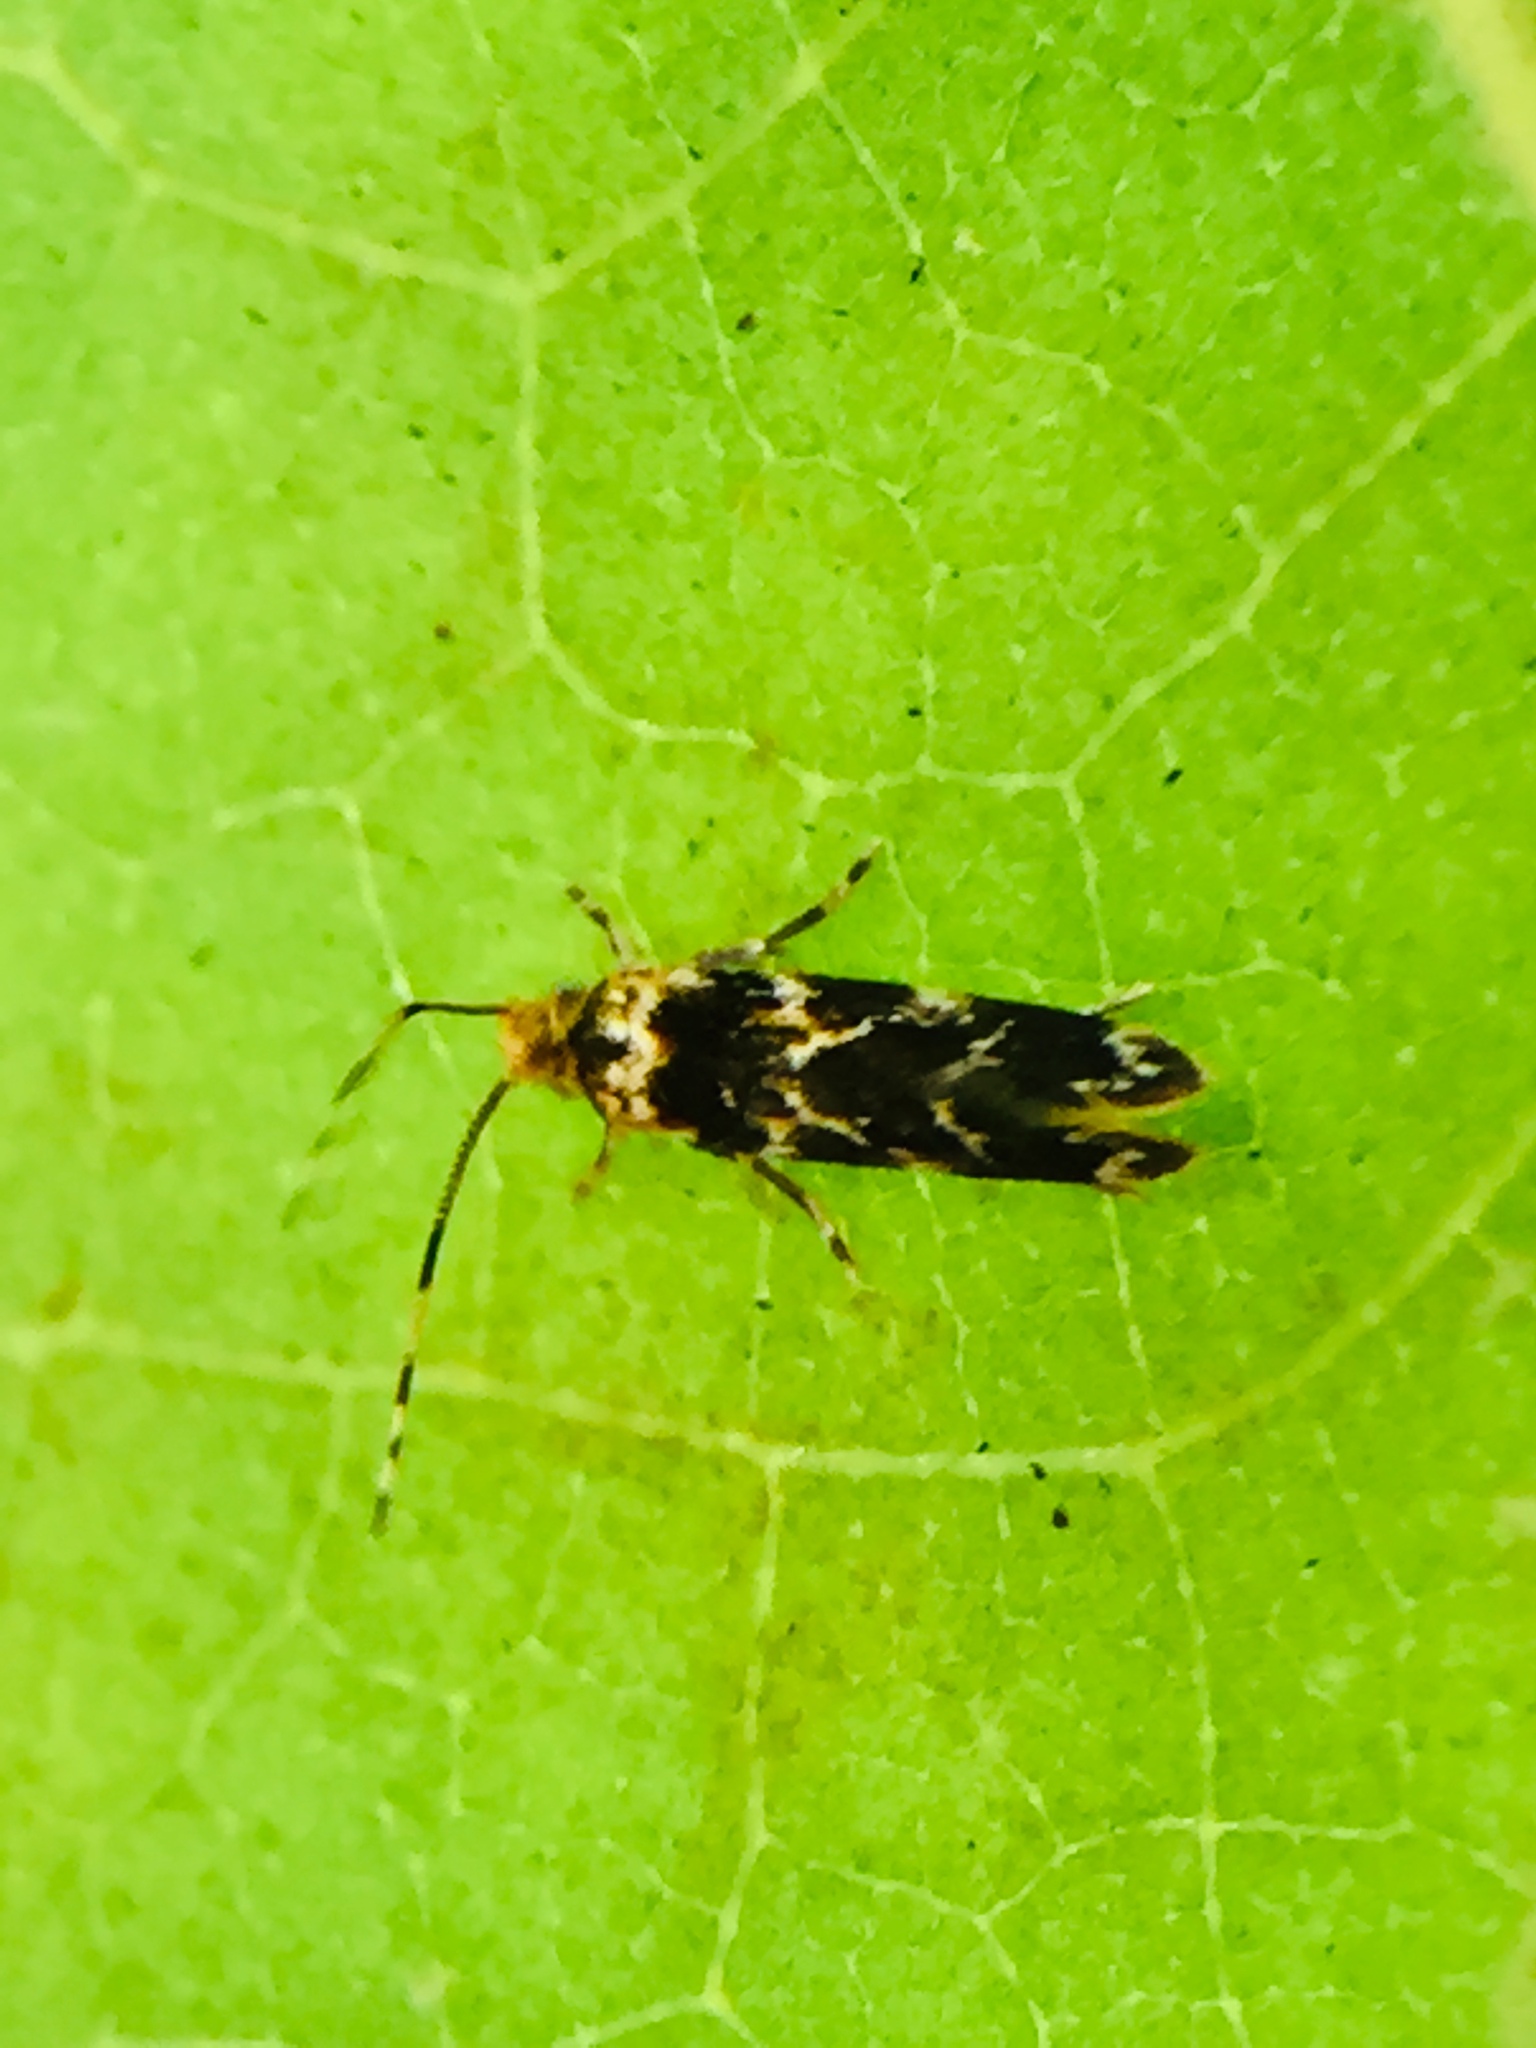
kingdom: Animalia
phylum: Arthropoda
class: Insecta
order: Lepidoptera
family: Dryadaulidae
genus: Dryadaula
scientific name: Dryadaula pactolia
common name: Cellar clothes
